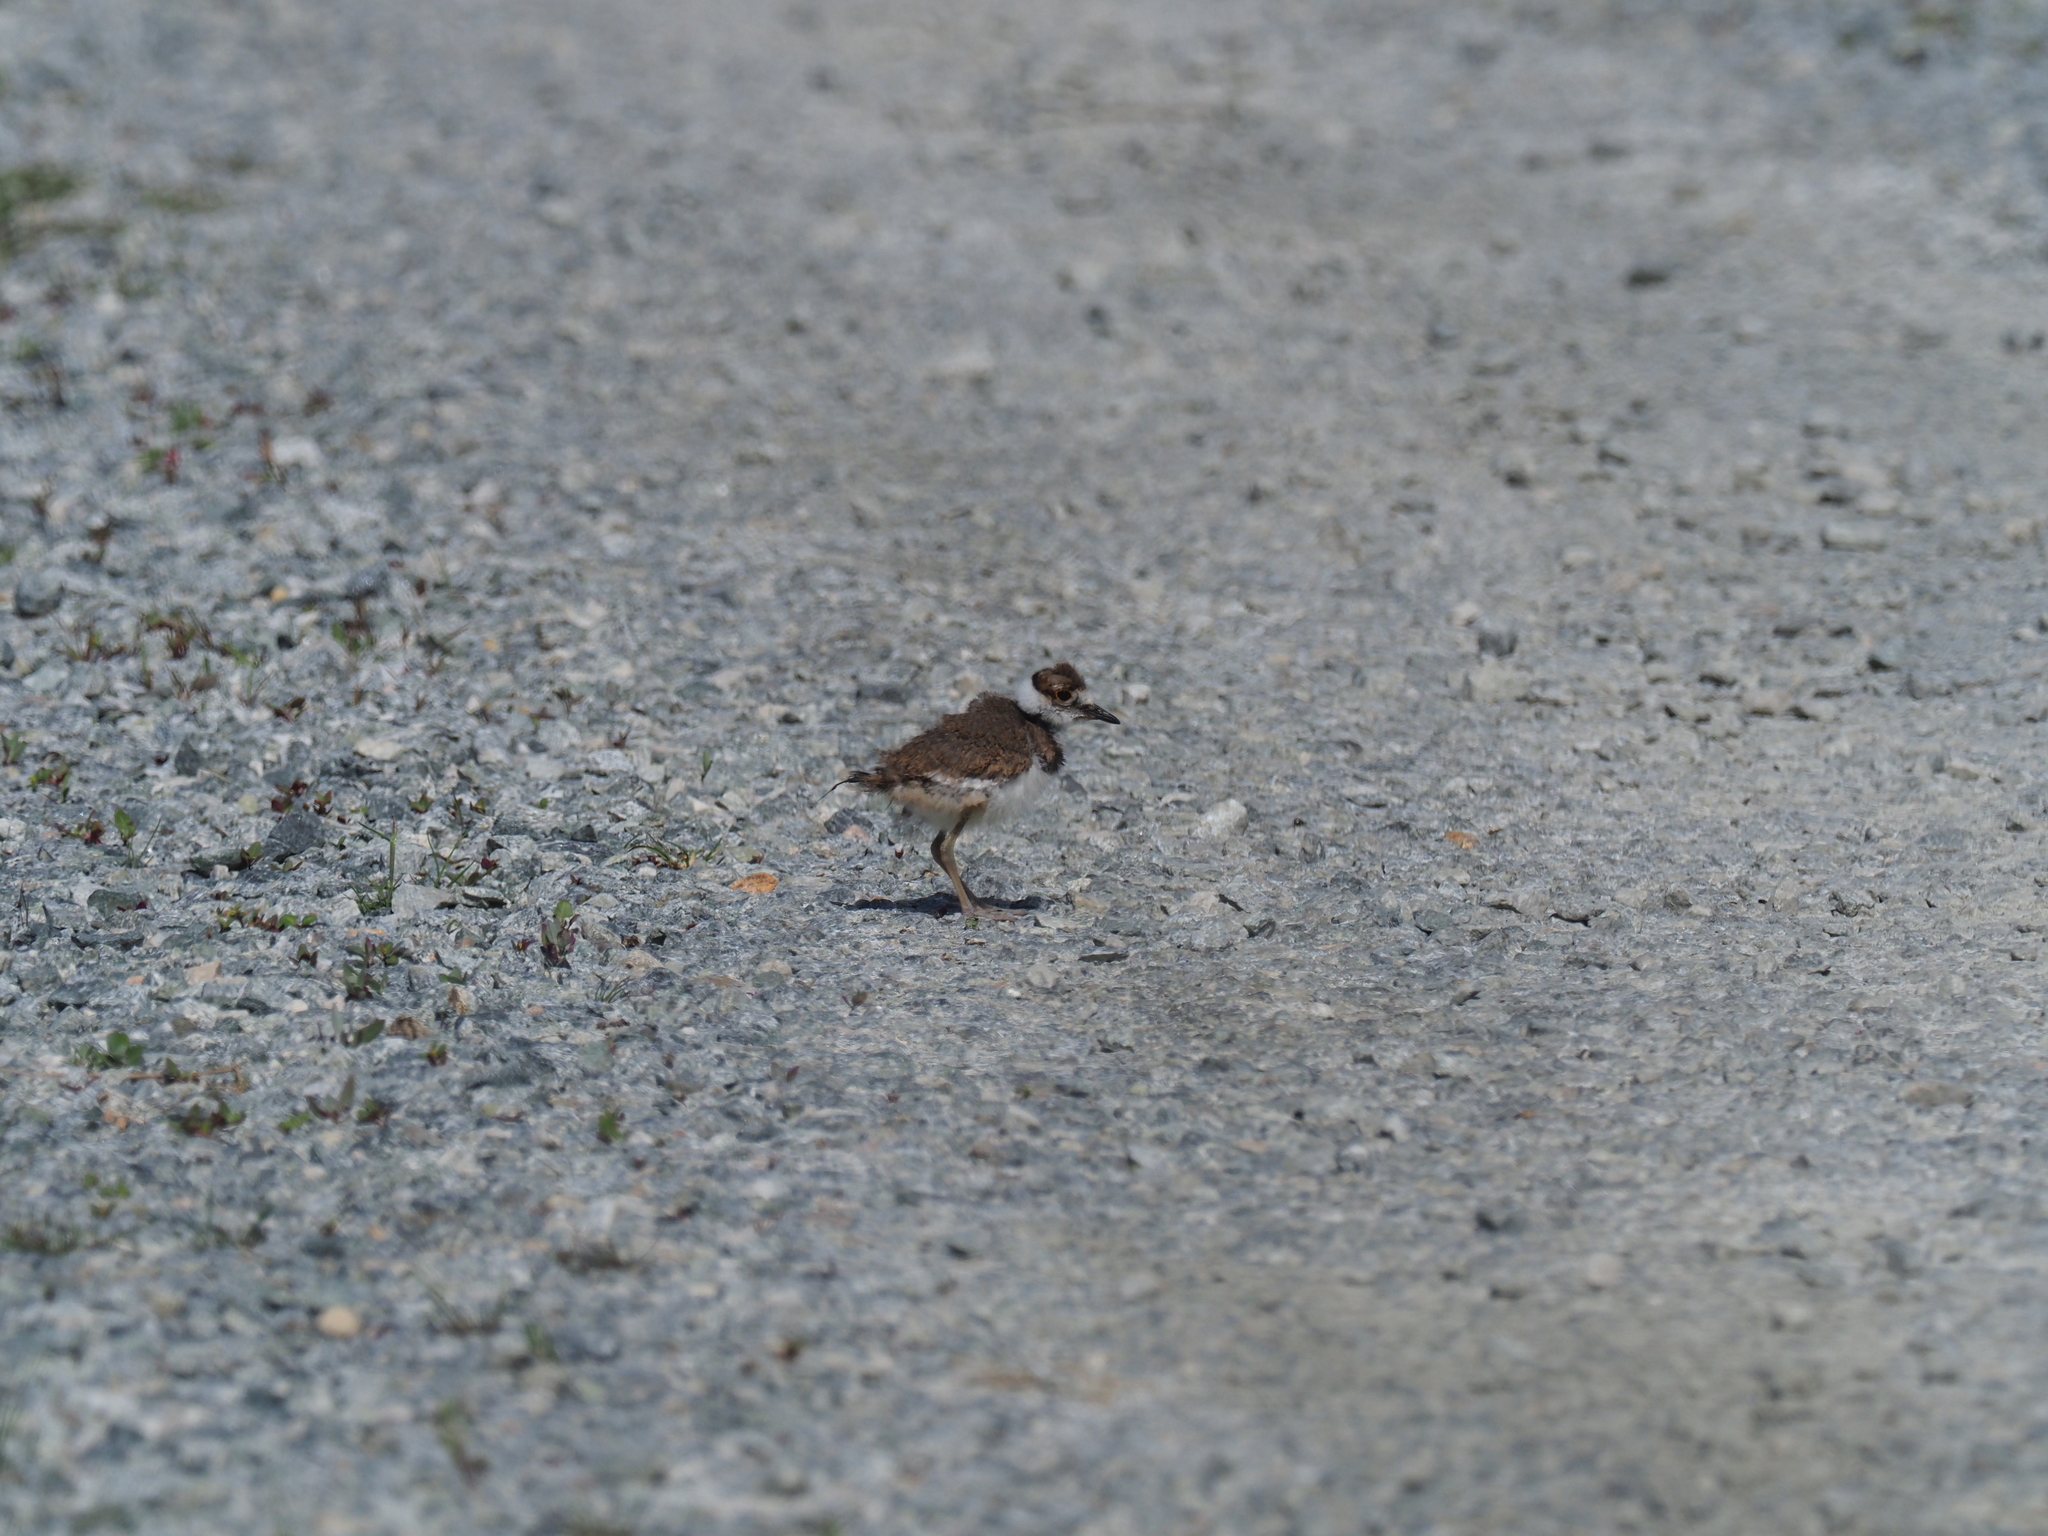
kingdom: Animalia
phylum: Chordata
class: Aves
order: Charadriiformes
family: Charadriidae
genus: Charadrius
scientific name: Charadrius vociferus
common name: Killdeer
